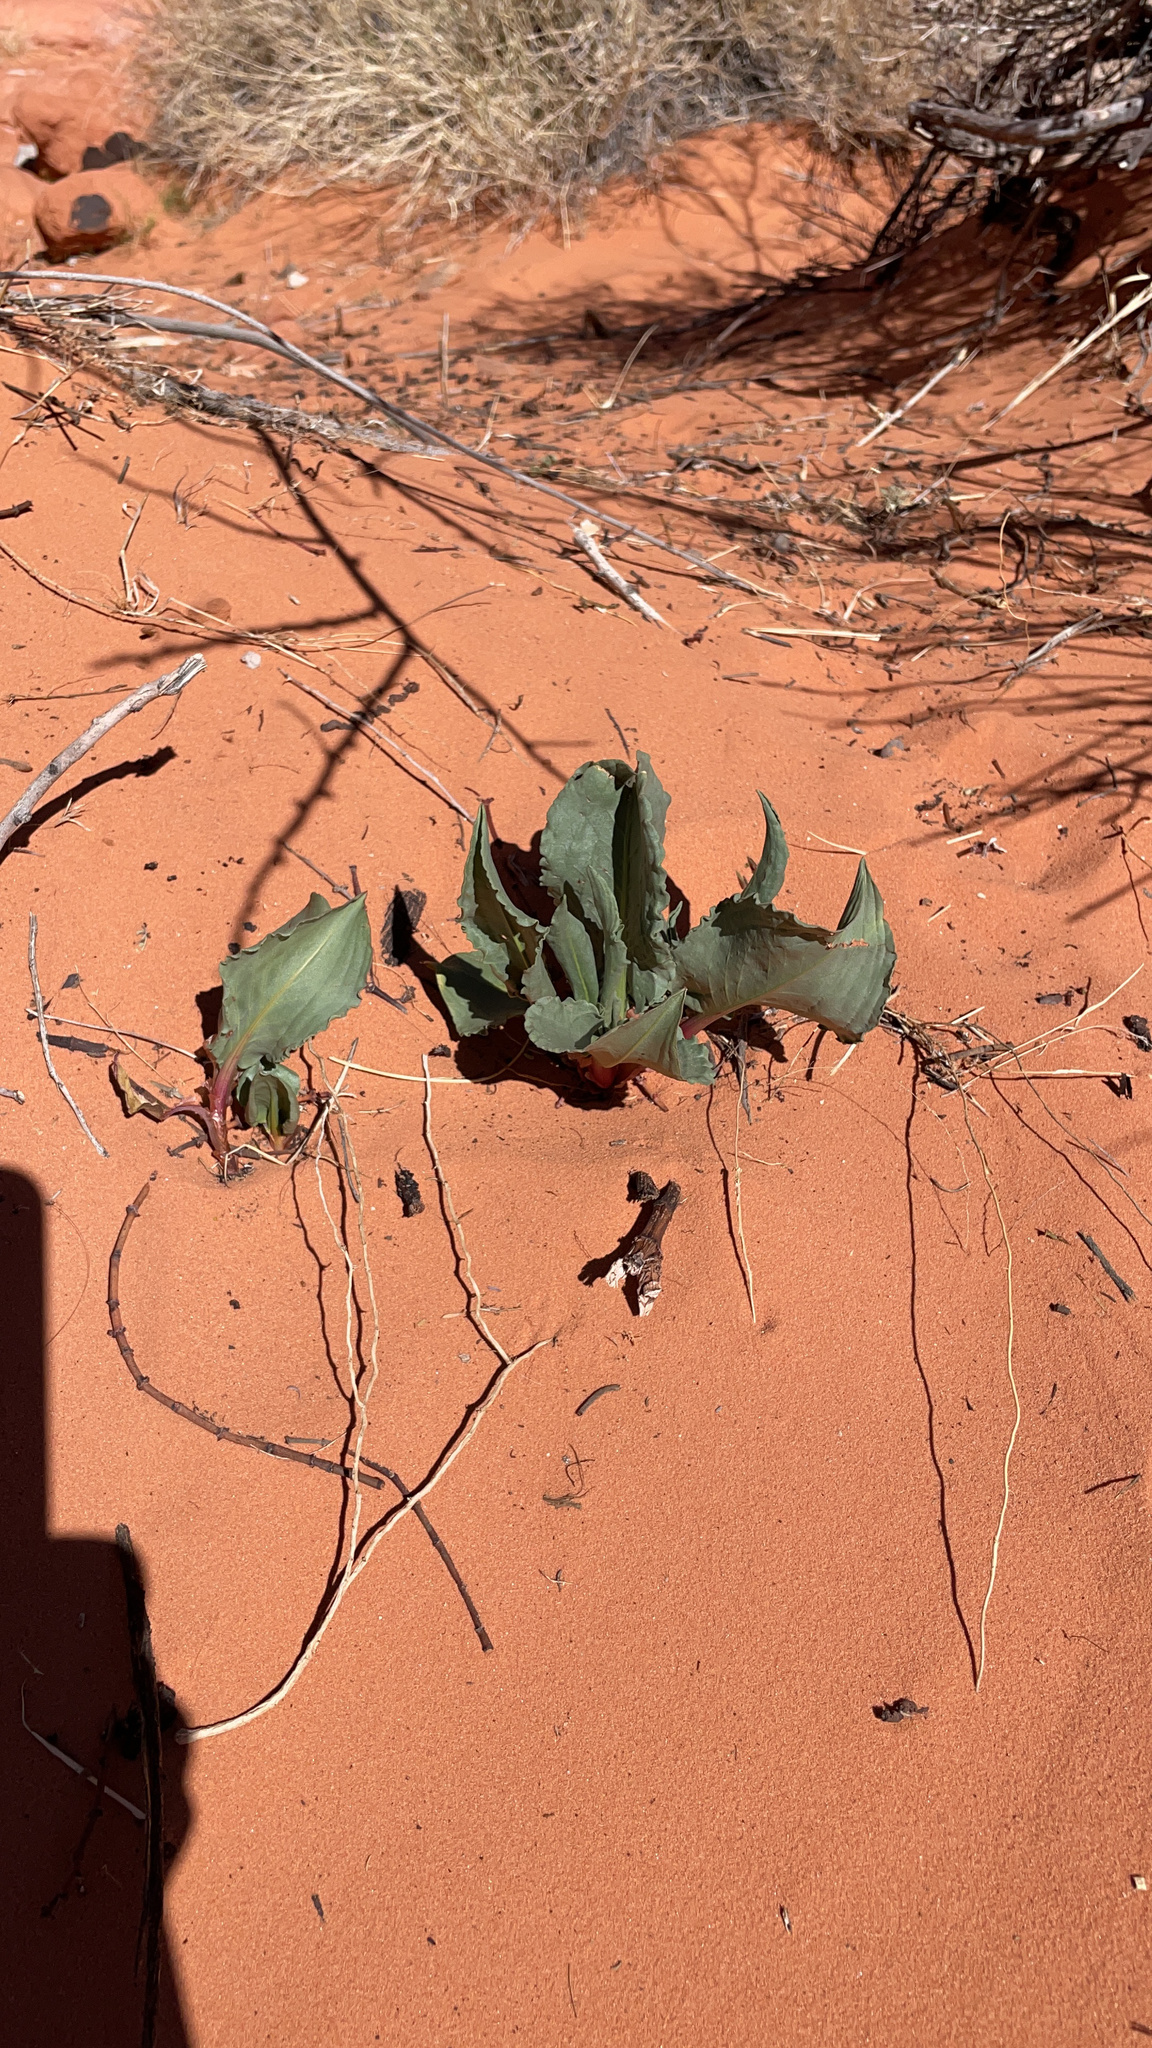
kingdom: Plantae
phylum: Tracheophyta
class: Magnoliopsida
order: Caryophyllales
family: Polygonaceae
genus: Rumex
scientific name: Rumex hymenosepalus
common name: Ganagra
